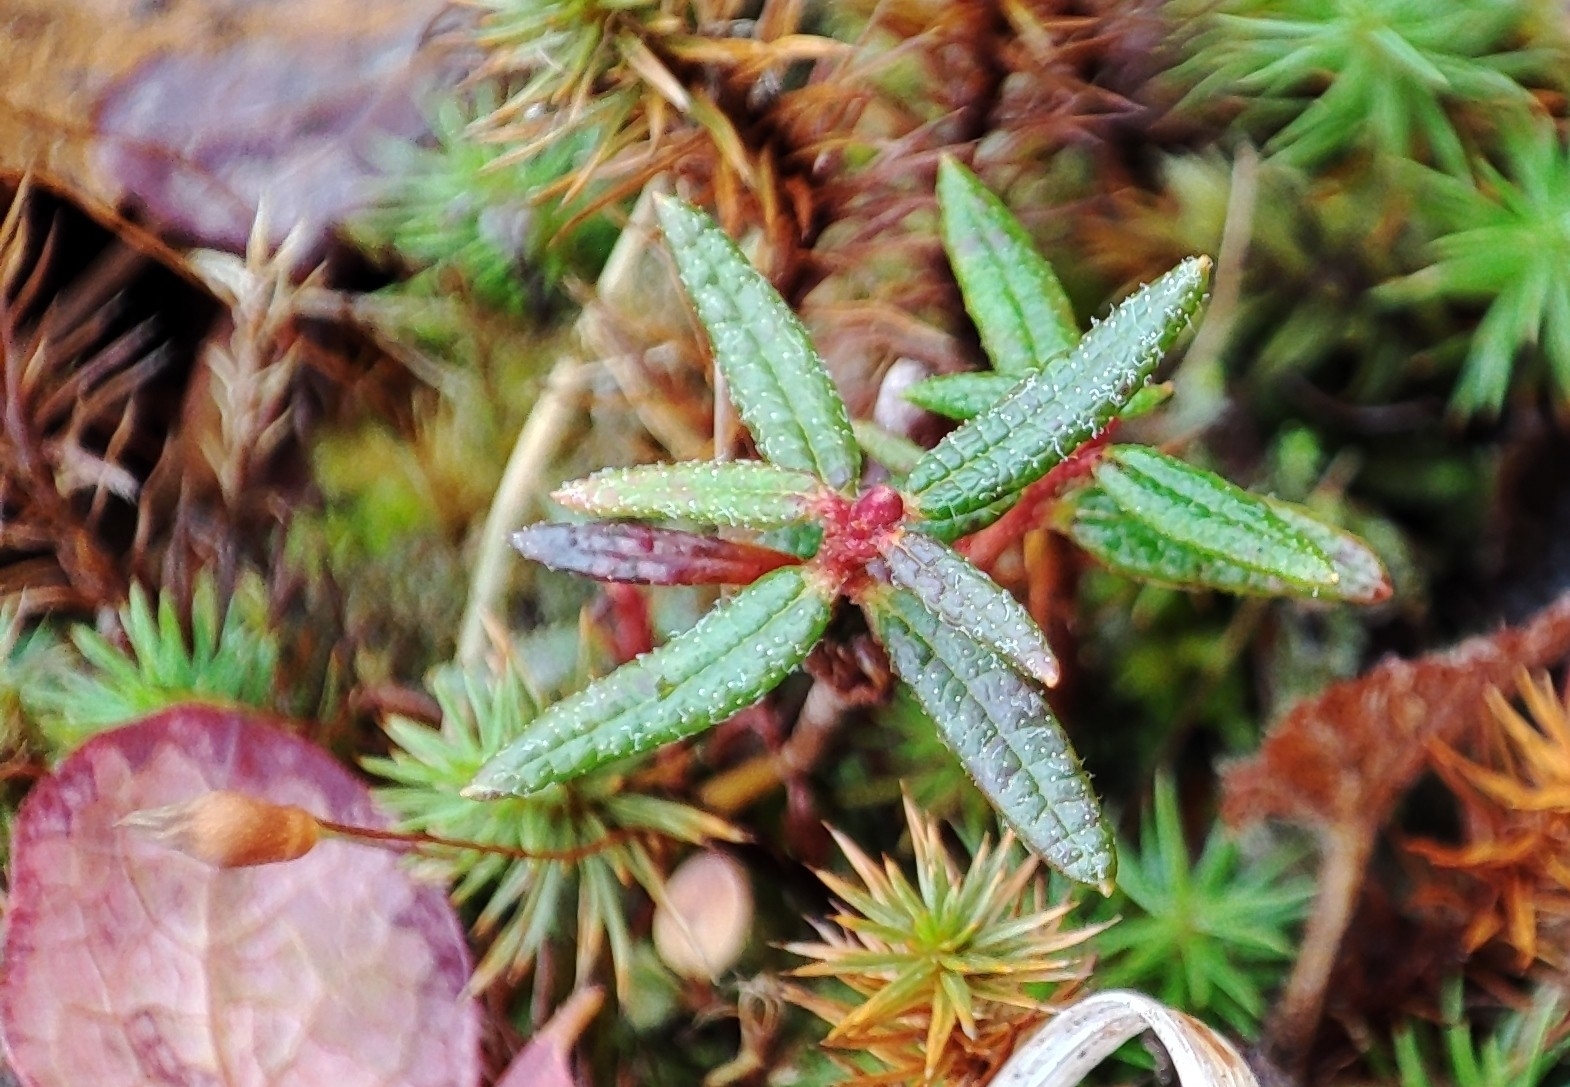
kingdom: Plantae
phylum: Tracheophyta
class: Magnoliopsida
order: Ericales
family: Ericaceae
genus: Rhododendron
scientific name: Rhododendron tomentosum
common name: Marsh labrador tea
